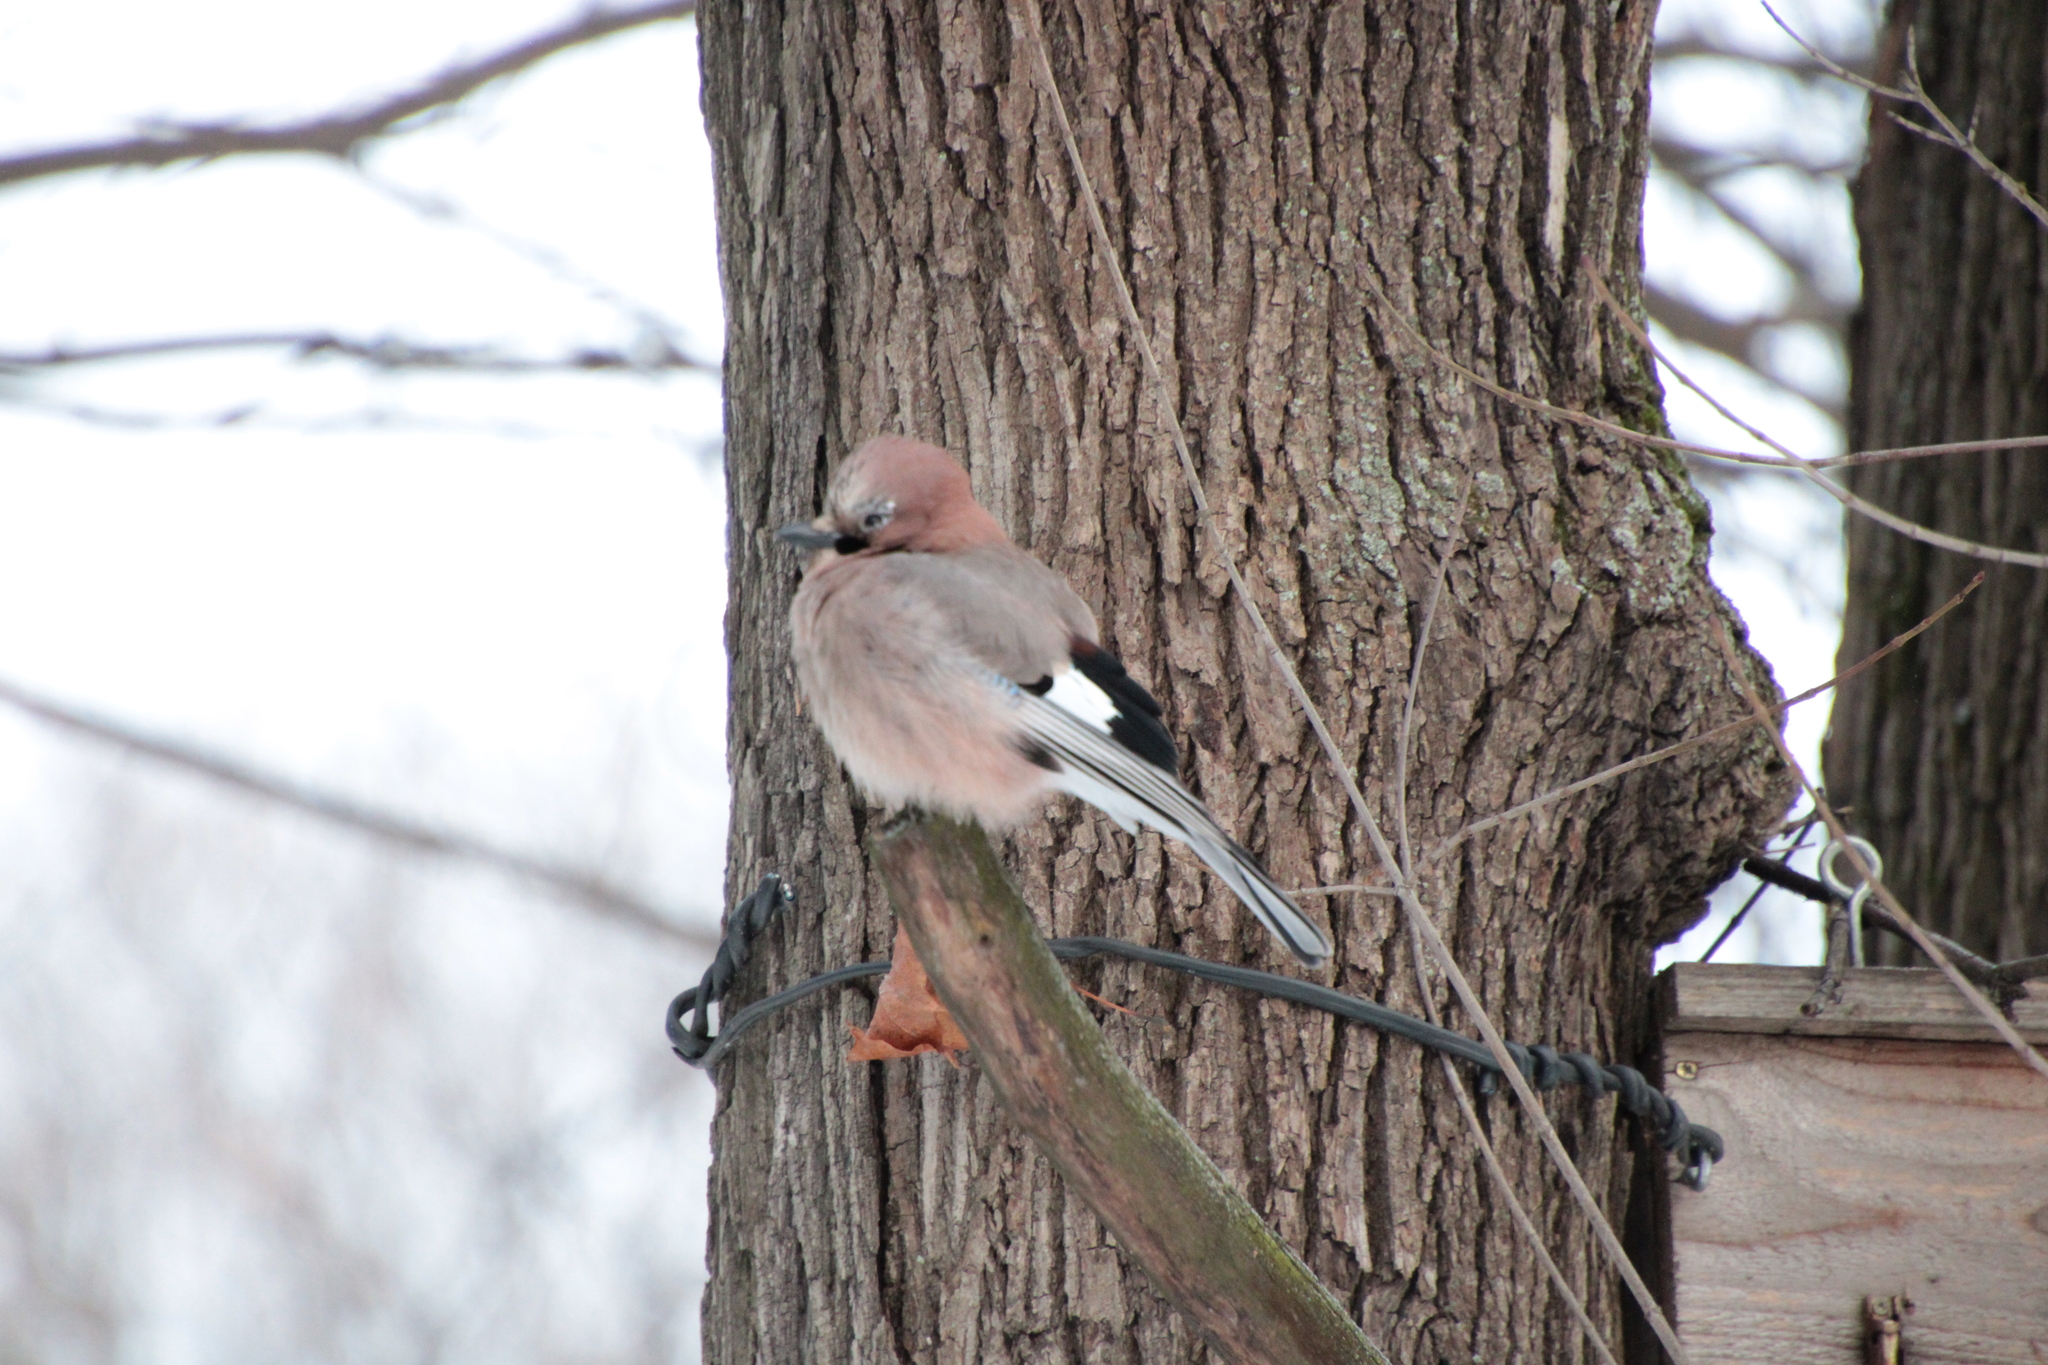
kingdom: Animalia
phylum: Chordata
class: Aves
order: Passeriformes
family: Corvidae
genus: Garrulus
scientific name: Garrulus glandarius
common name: Eurasian jay
